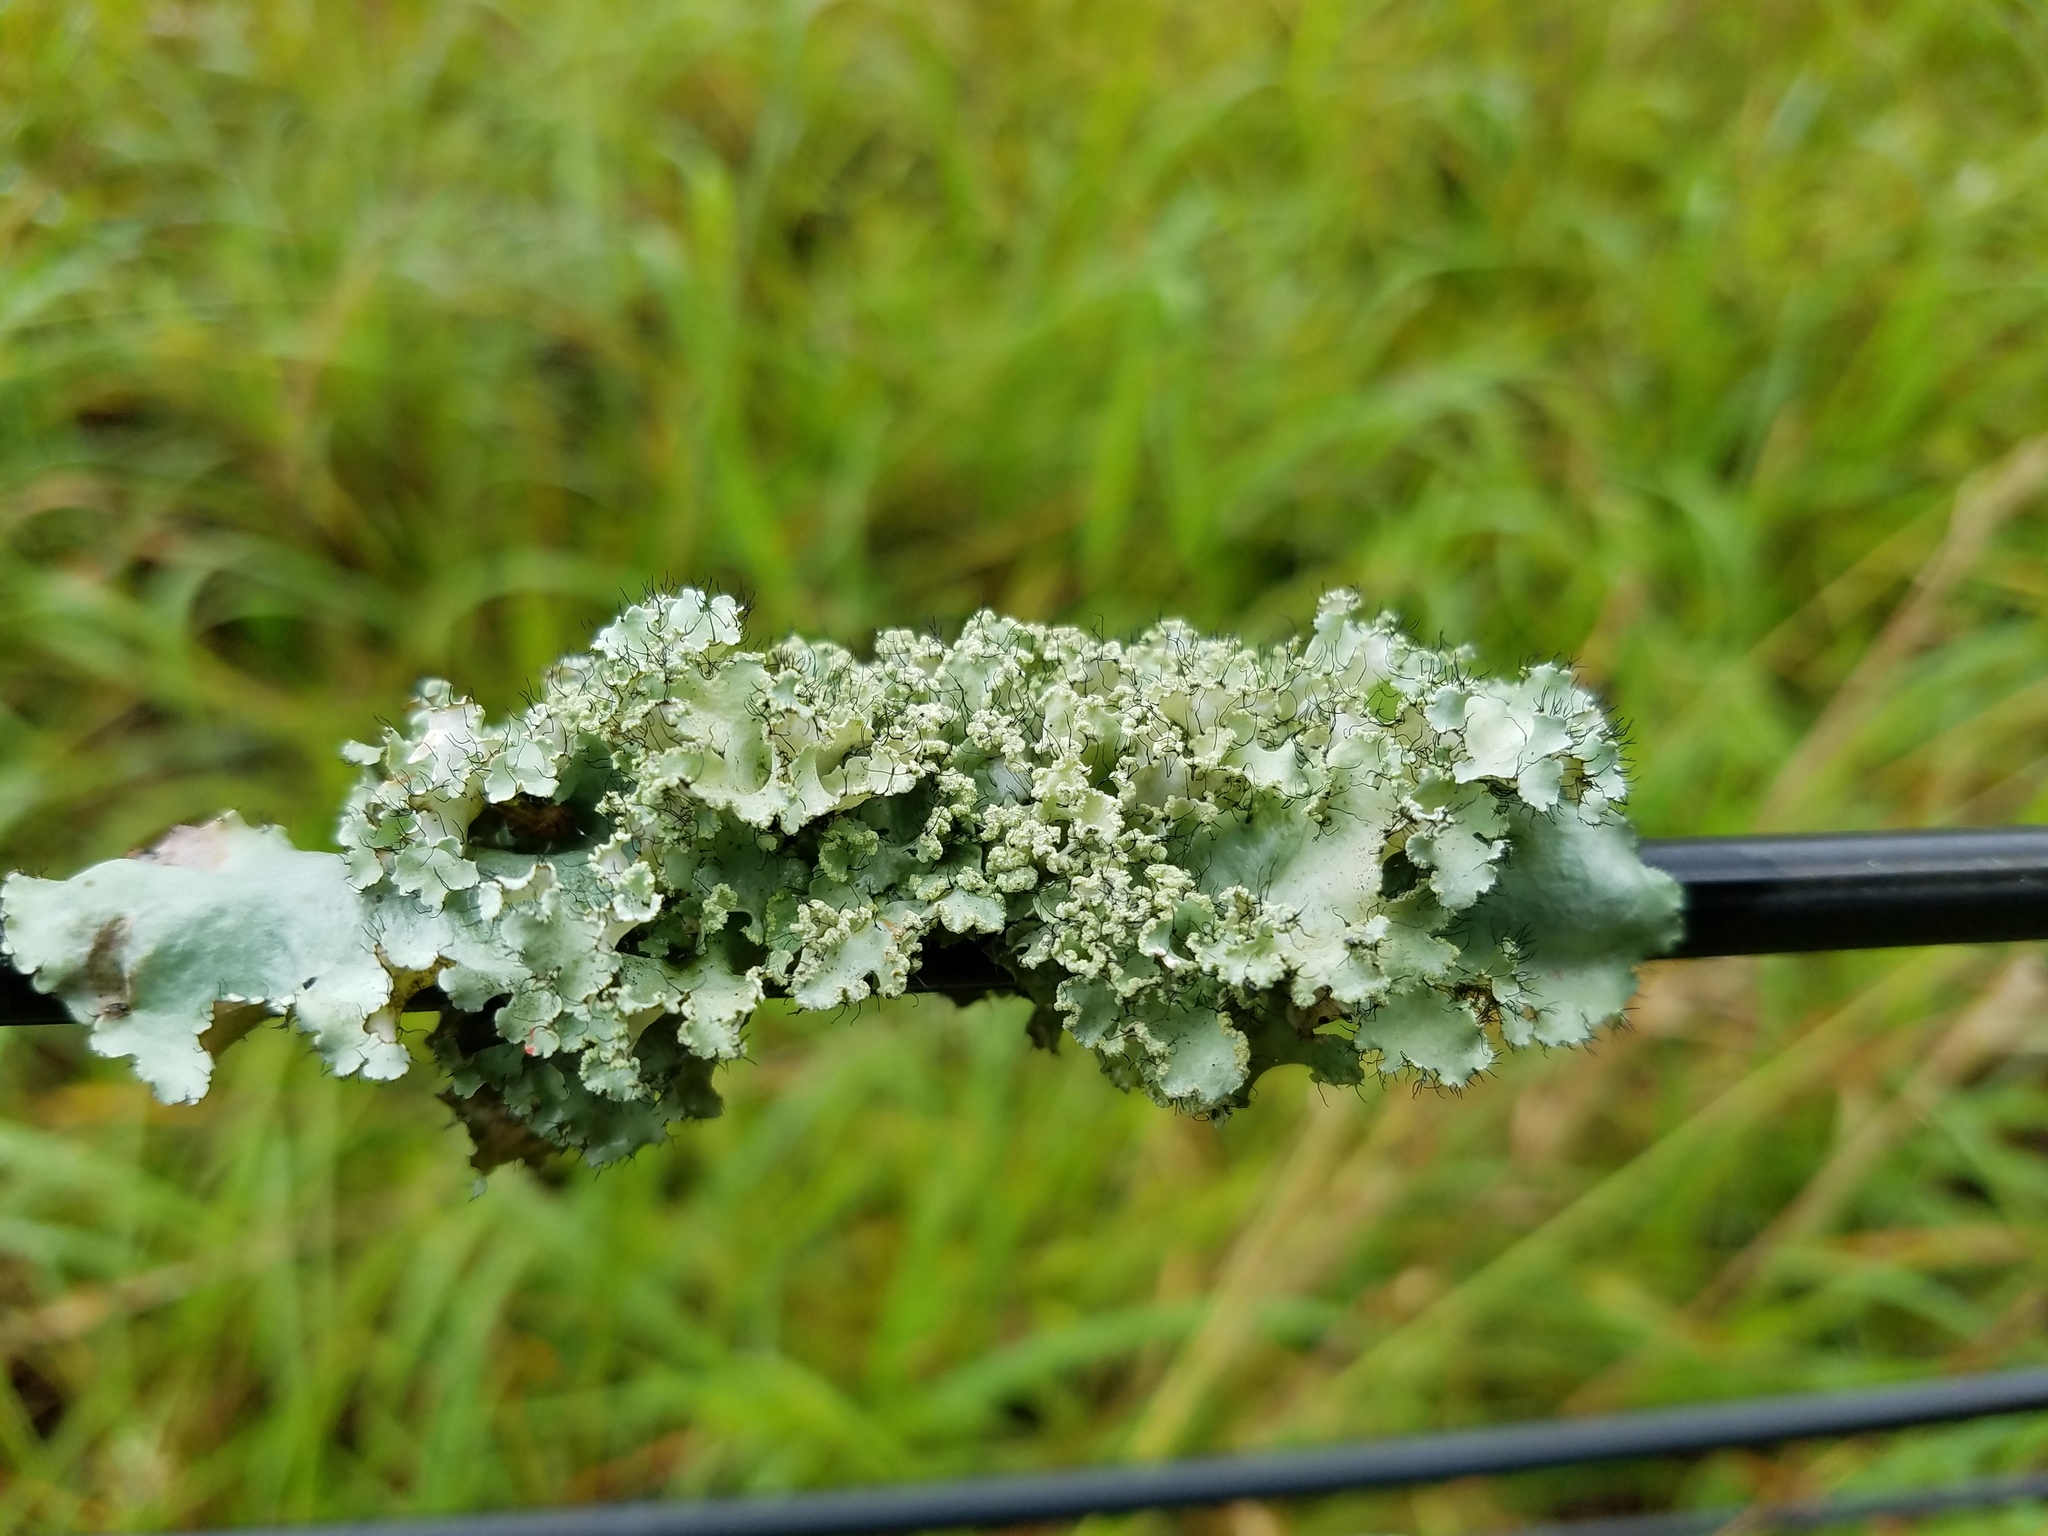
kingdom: Fungi
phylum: Ascomycota
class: Lecanoromycetes
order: Lecanorales
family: Parmeliaceae
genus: Parmotrema
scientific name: Parmotrema hypotropum
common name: Powdered ruffle lichen
